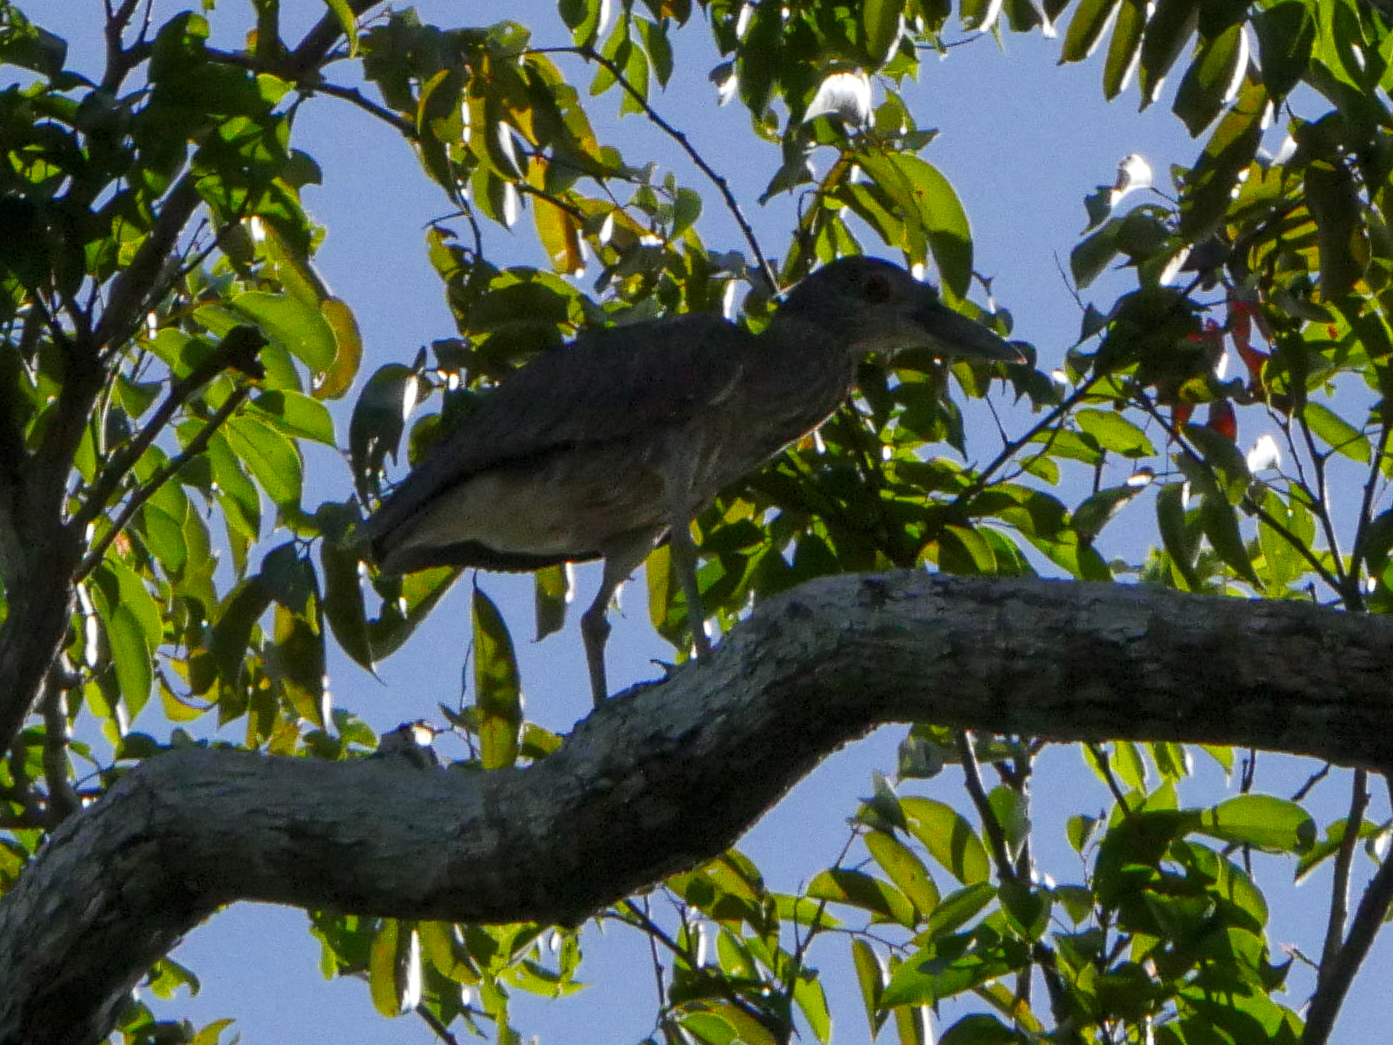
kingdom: Animalia
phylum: Chordata
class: Aves
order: Pelecaniformes
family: Ardeidae
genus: Nyctanassa
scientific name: Nyctanassa violacea
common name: Yellow-crowned night heron
